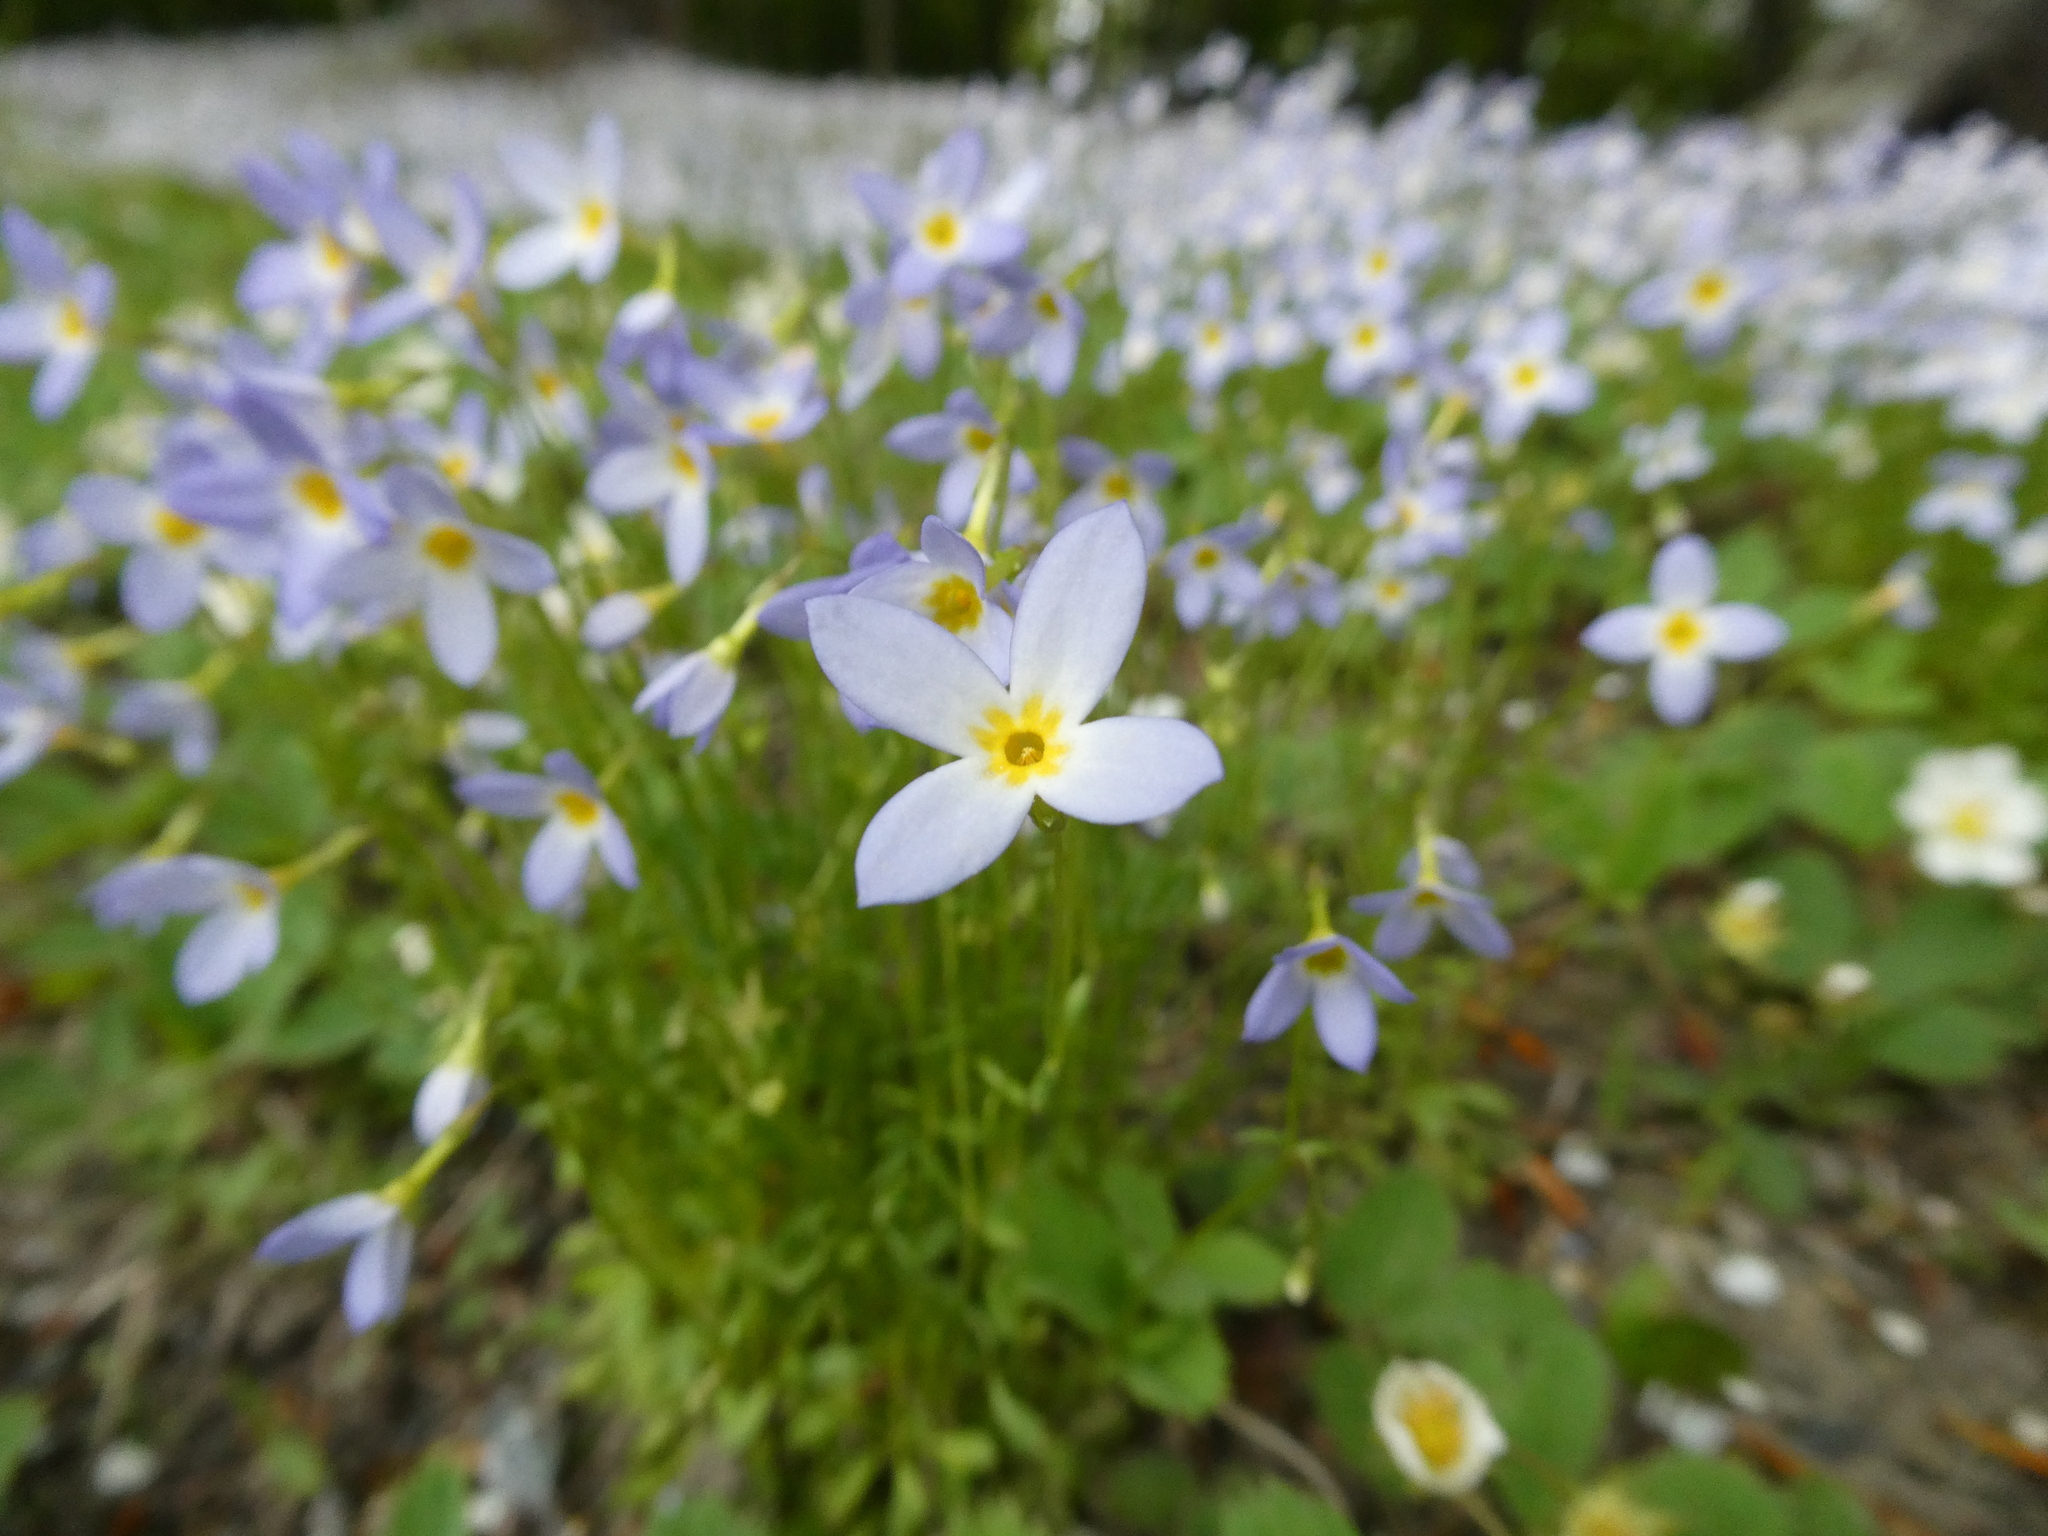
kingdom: Plantae
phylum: Tracheophyta
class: Magnoliopsida
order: Gentianales
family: Rubiaceae
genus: Houstonia
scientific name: Houstonia caerulea
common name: Bluets
